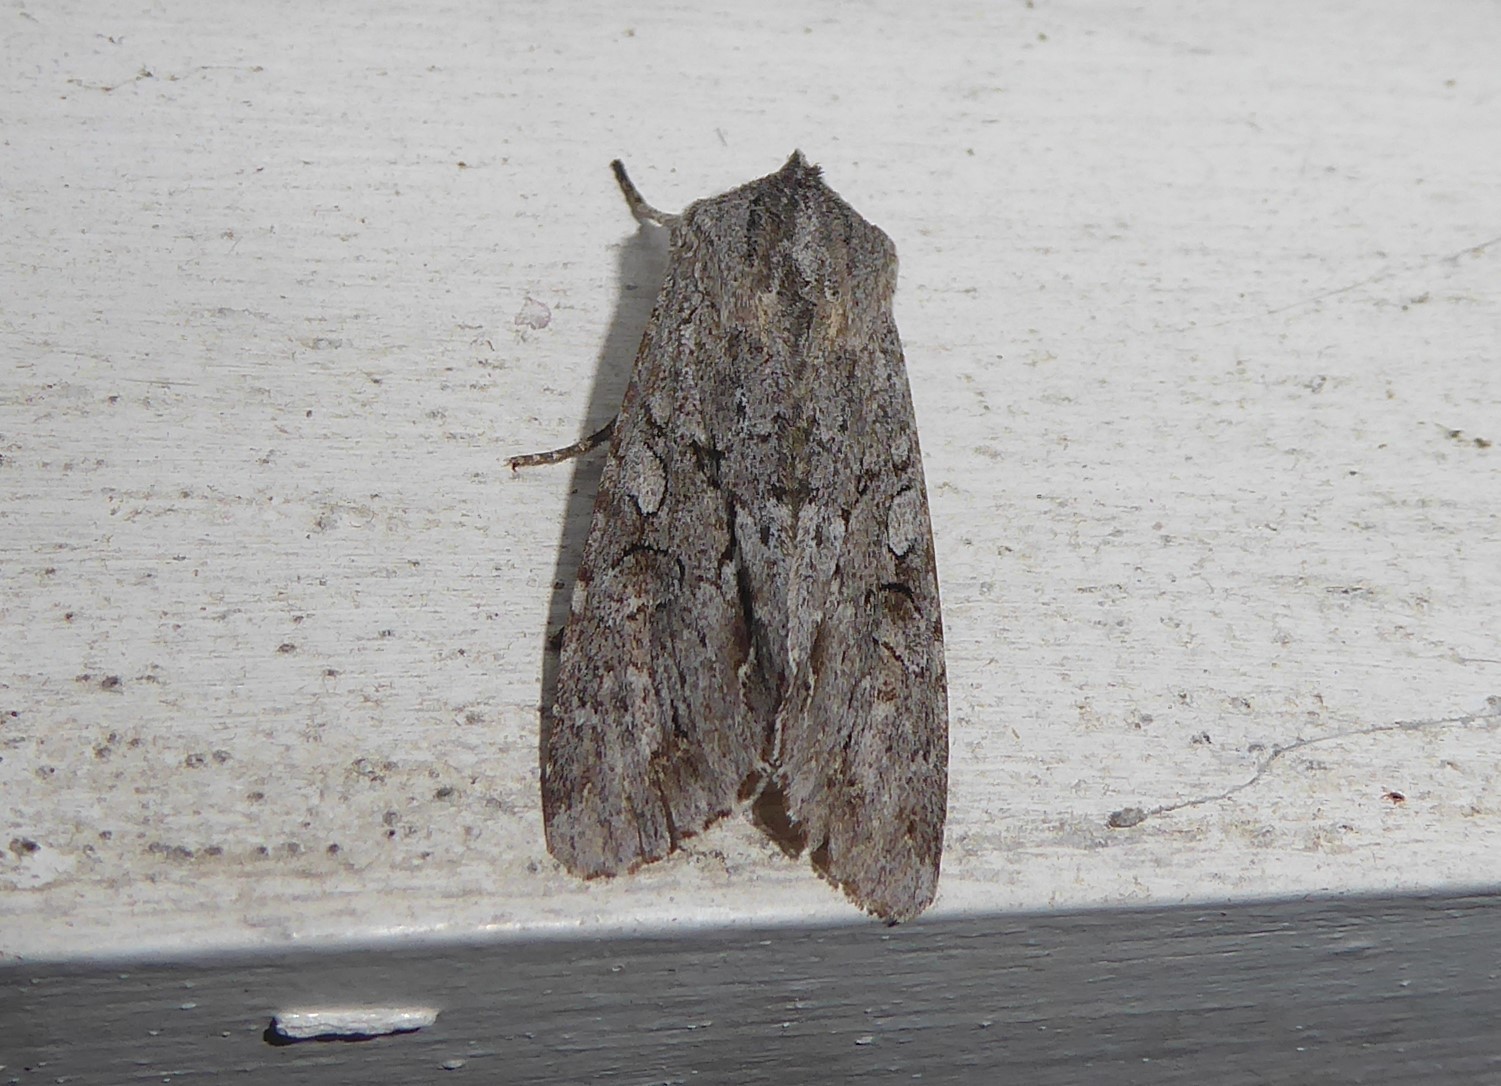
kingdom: Animalia
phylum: Arthropoda
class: Insecta
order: Lepidoptera
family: Noctuidae
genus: Ichneutica
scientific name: Ichneutica
